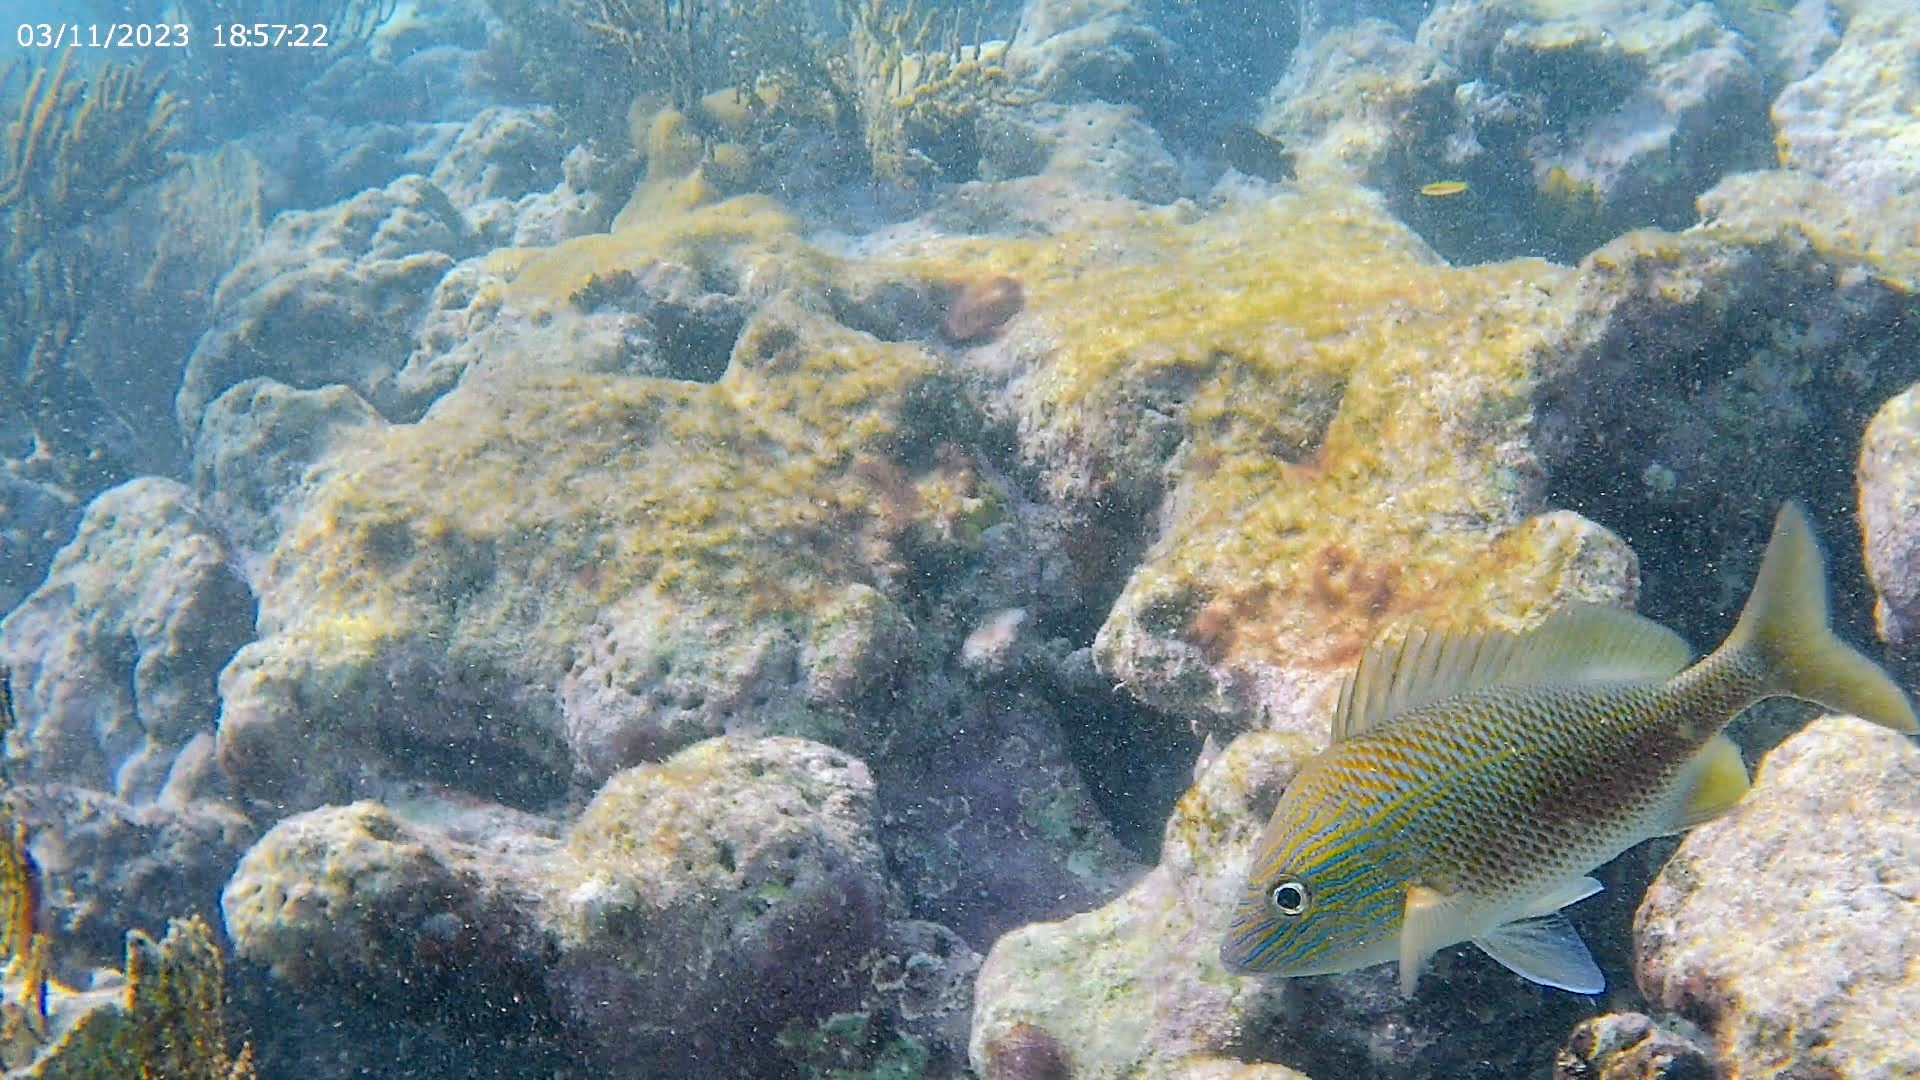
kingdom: Animalia
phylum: Chordata
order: Perciformes
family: Haemulidae
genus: Haemulon
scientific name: Haemulon plumierii
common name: White grunt
